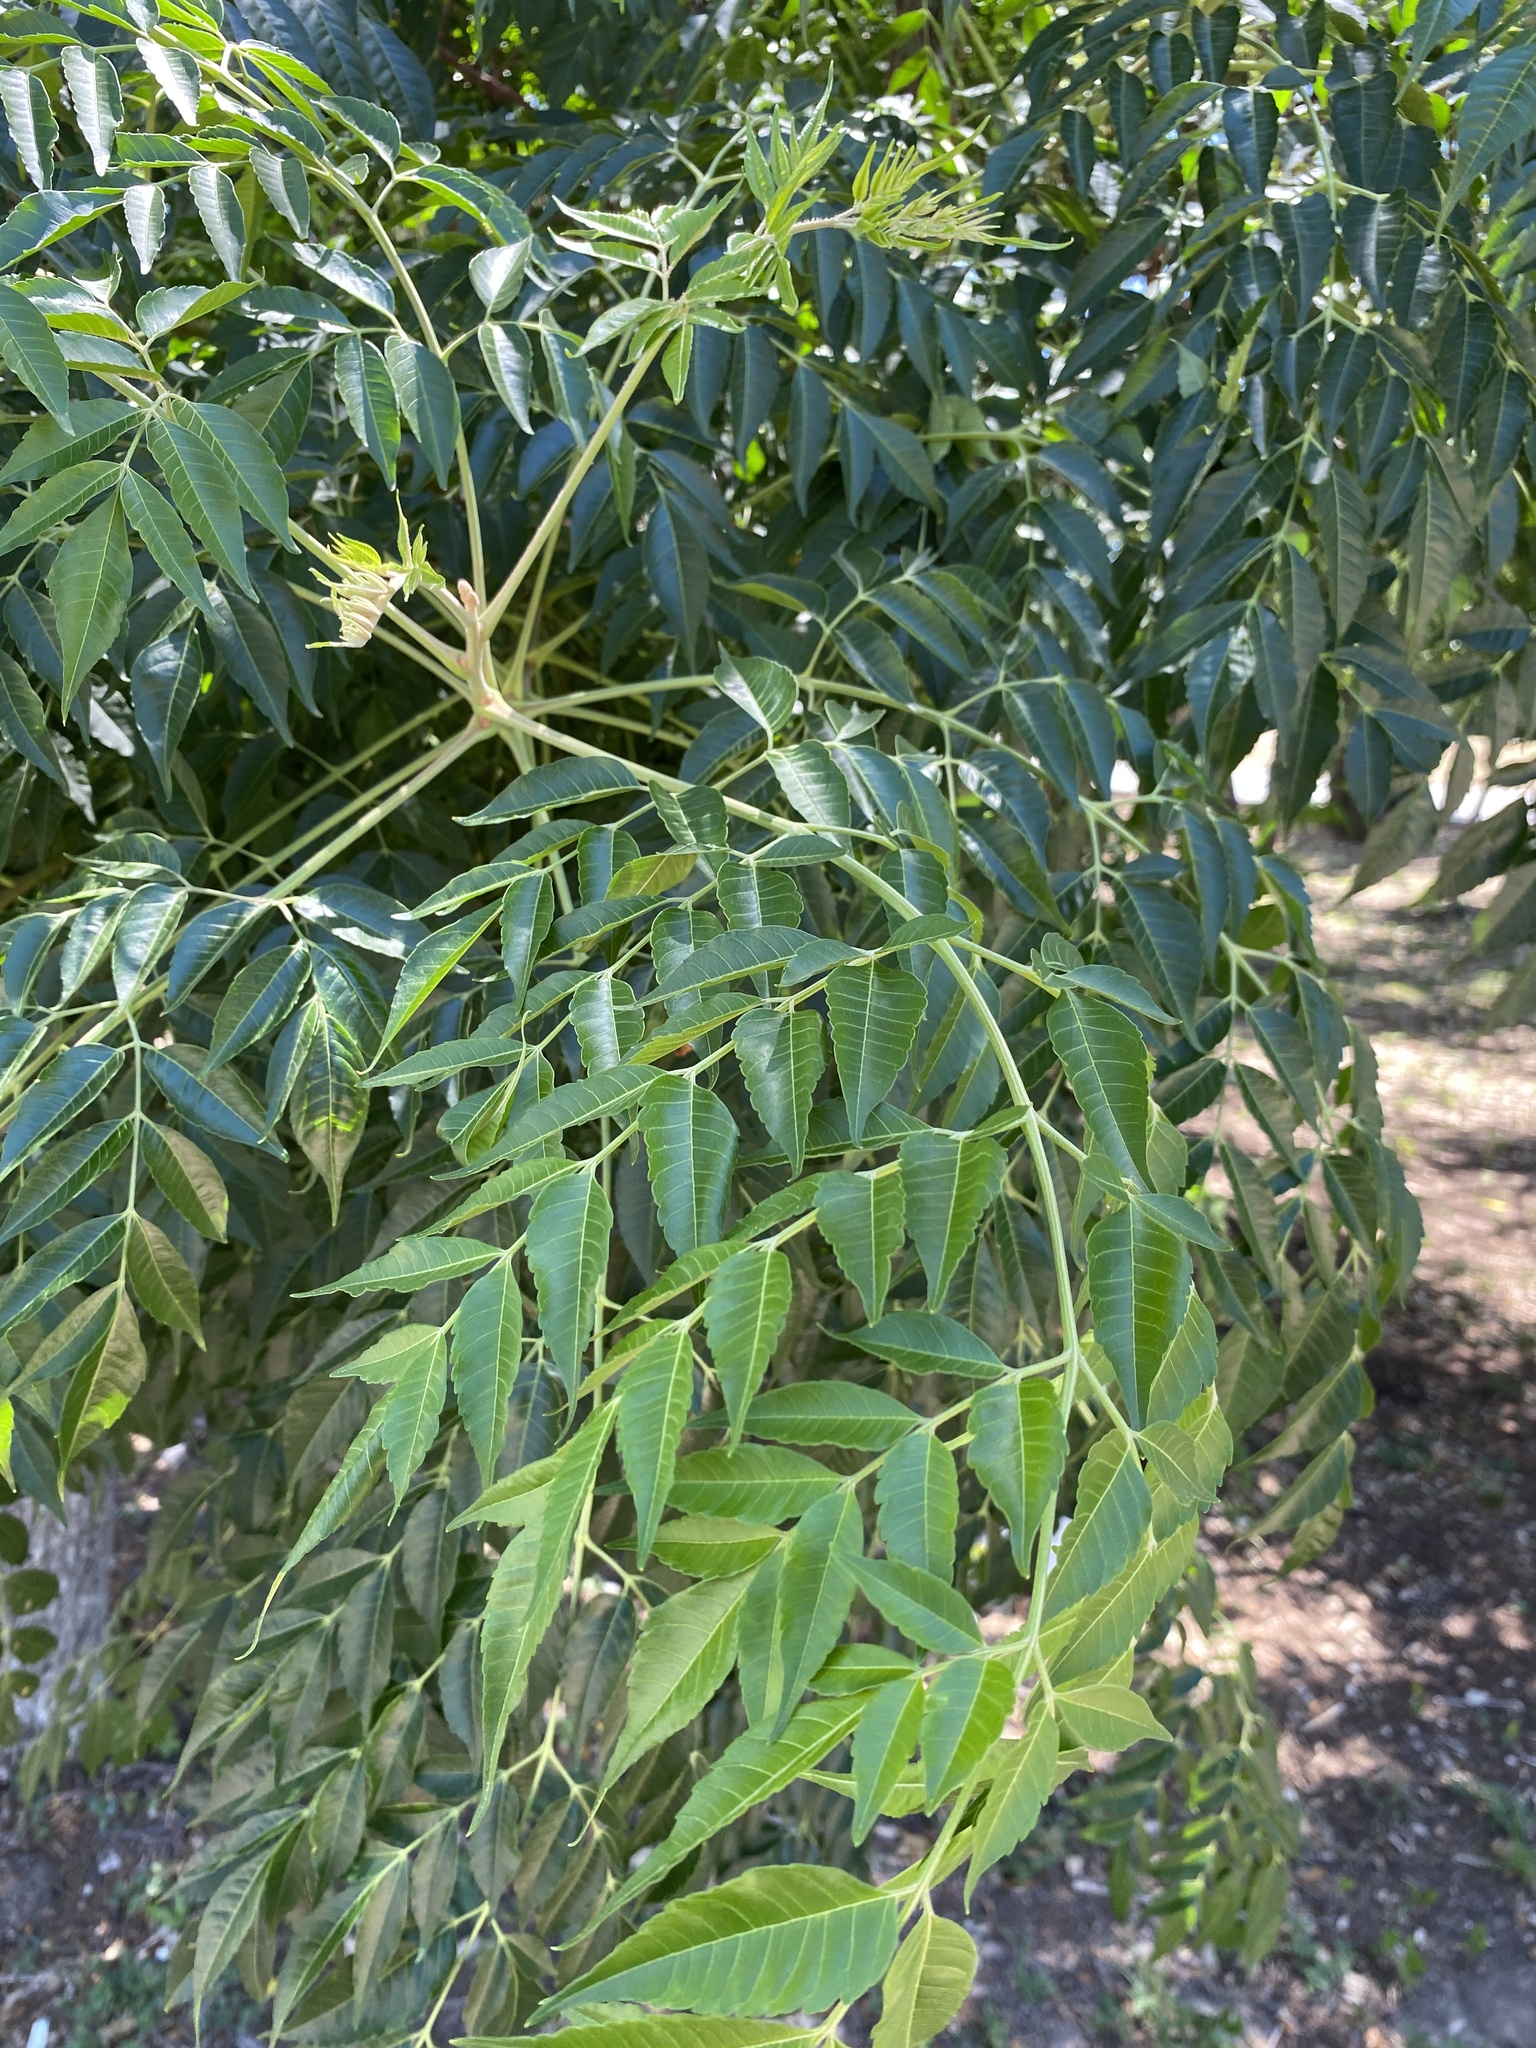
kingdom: Plantae
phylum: Tracheophyta
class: Magnoliopsida
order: Sapindales
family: Meliaceae
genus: Melia
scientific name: Melia azedarach
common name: Chinaberrytree
